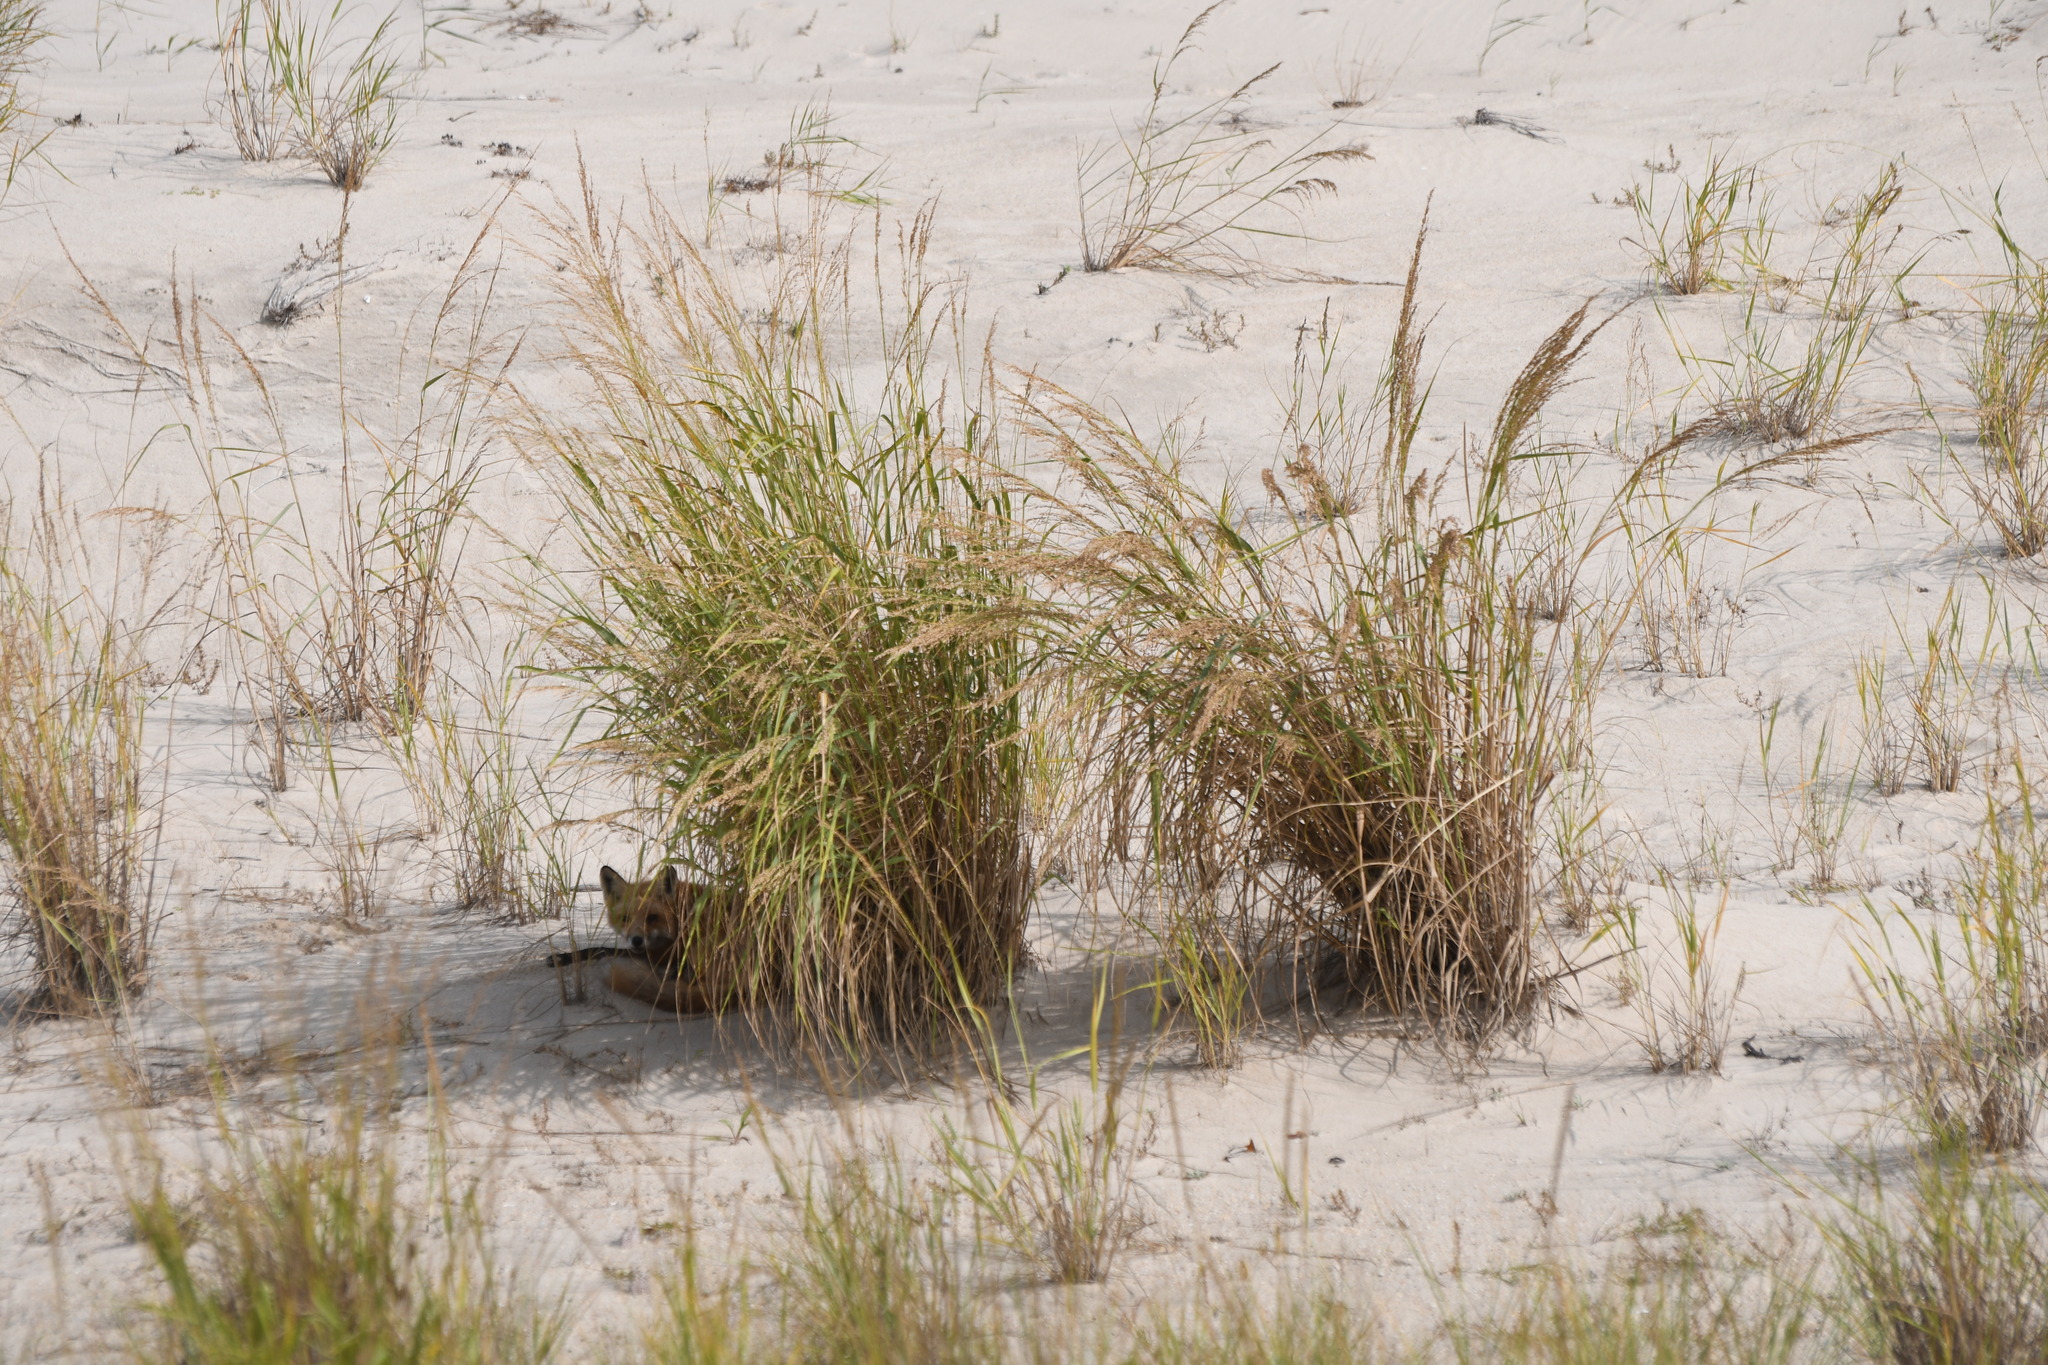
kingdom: Animalia
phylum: Chordata
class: Mammalia
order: Carnivora
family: Canidae
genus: Vulpes
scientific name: Vulpes vulpes
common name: Red fox
